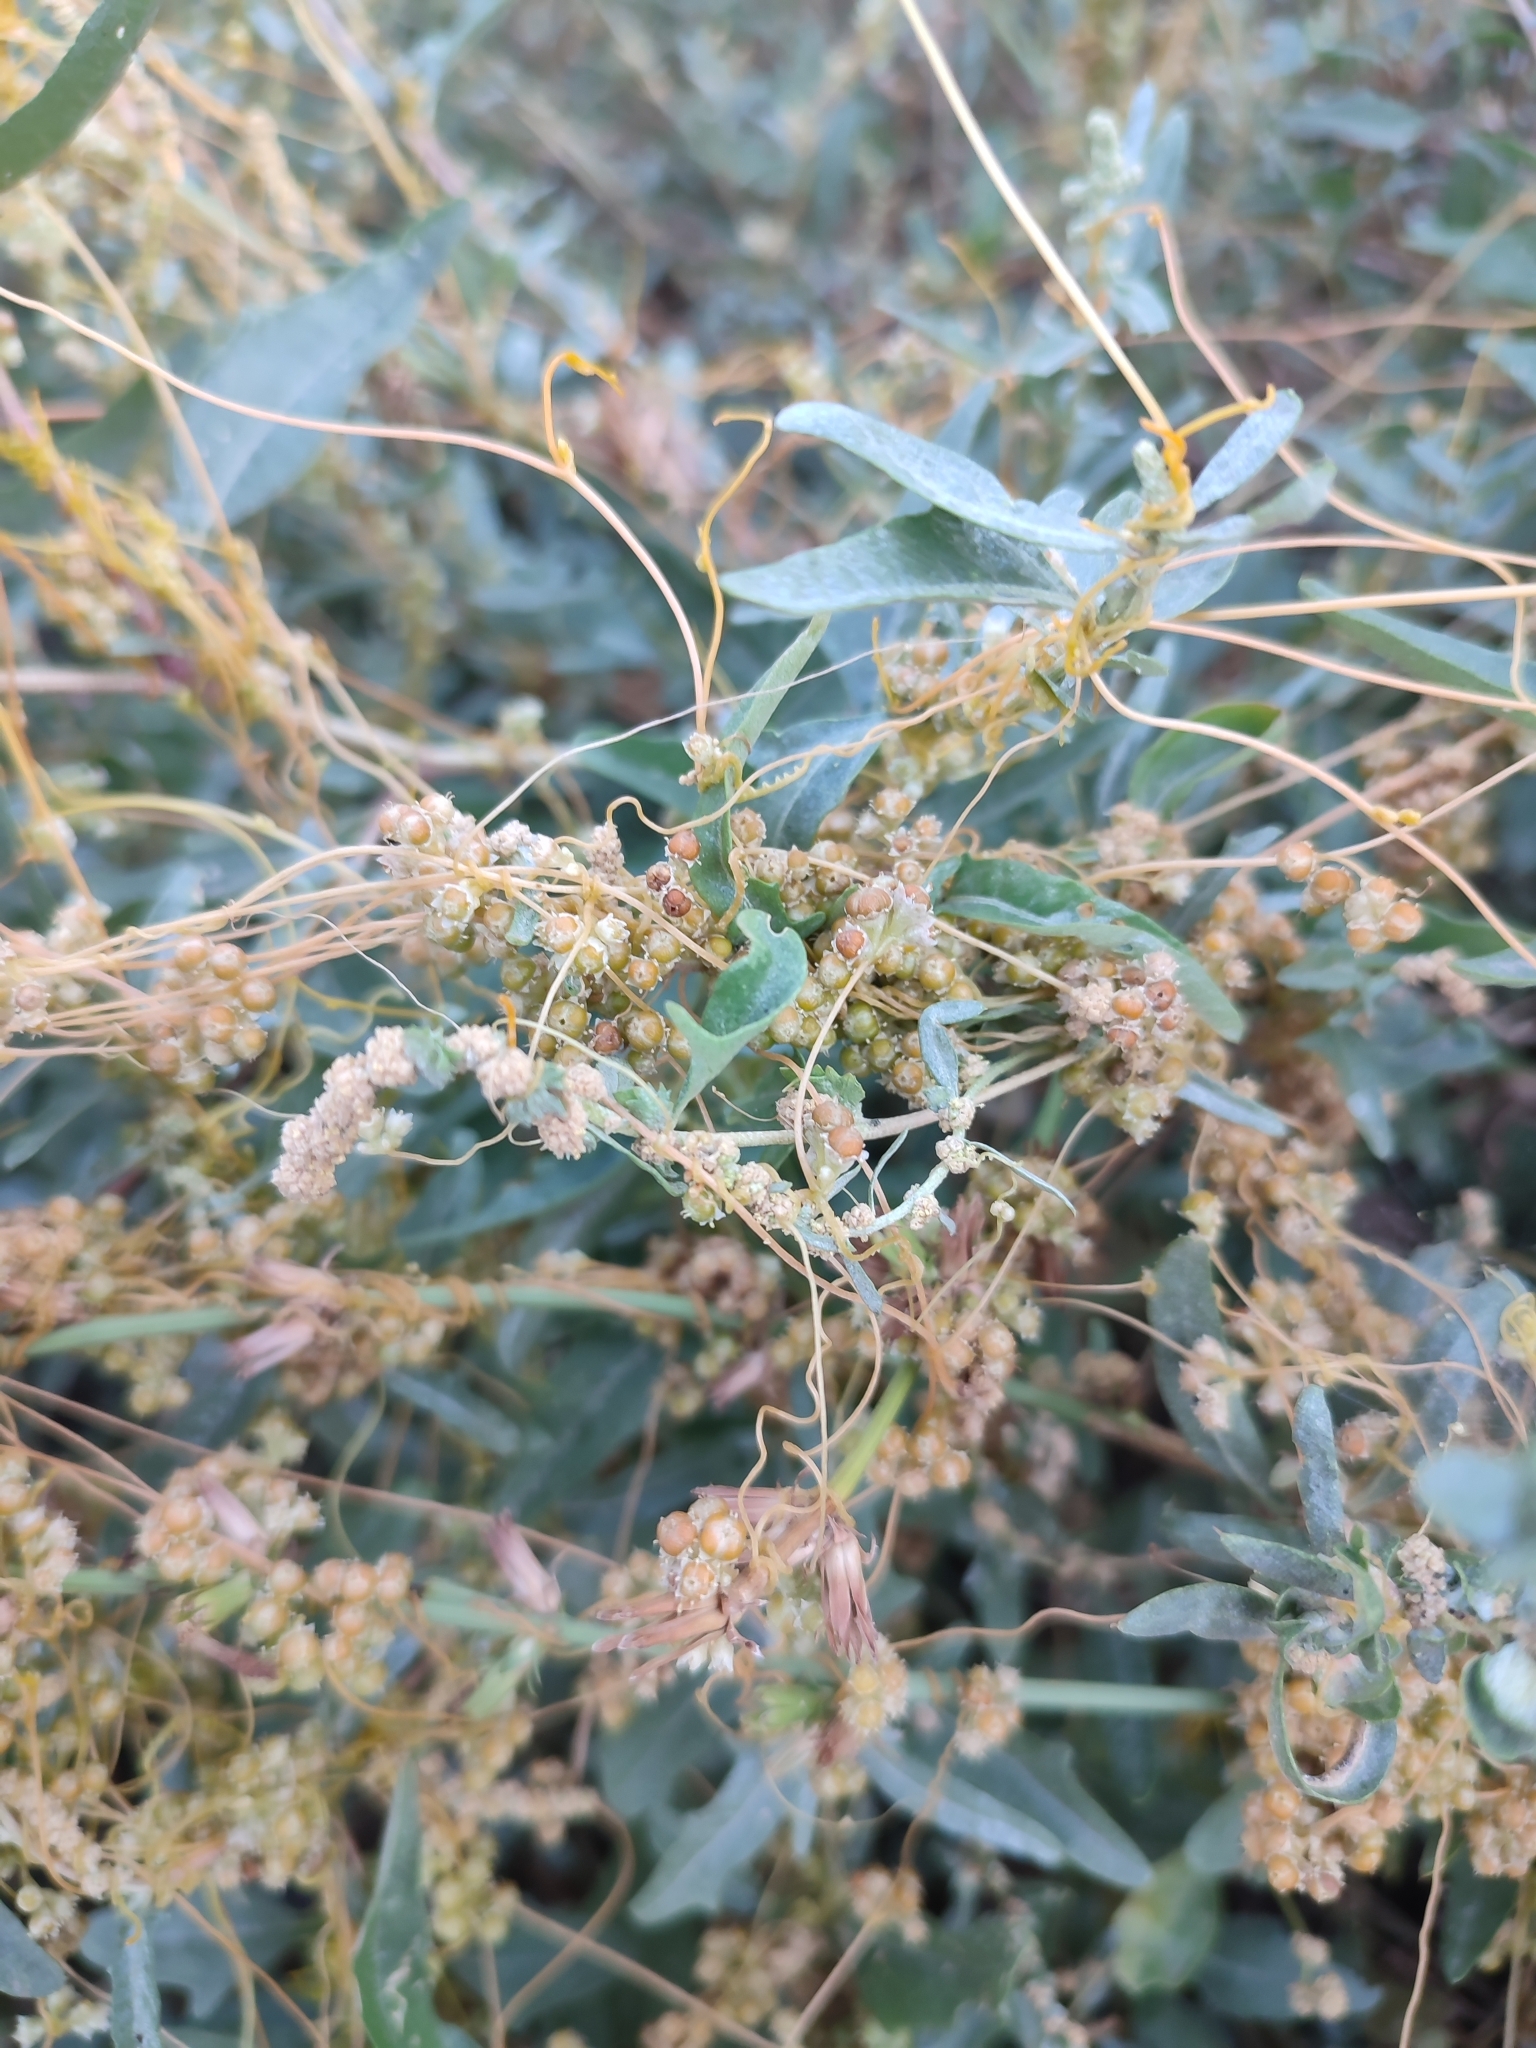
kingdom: Plantae
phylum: Tracheophyta
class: Magnoliopsida
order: Solanales
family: Convolvulaceae
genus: Cuscuta
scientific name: Cuscuta campestris
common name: Yellow dodder
